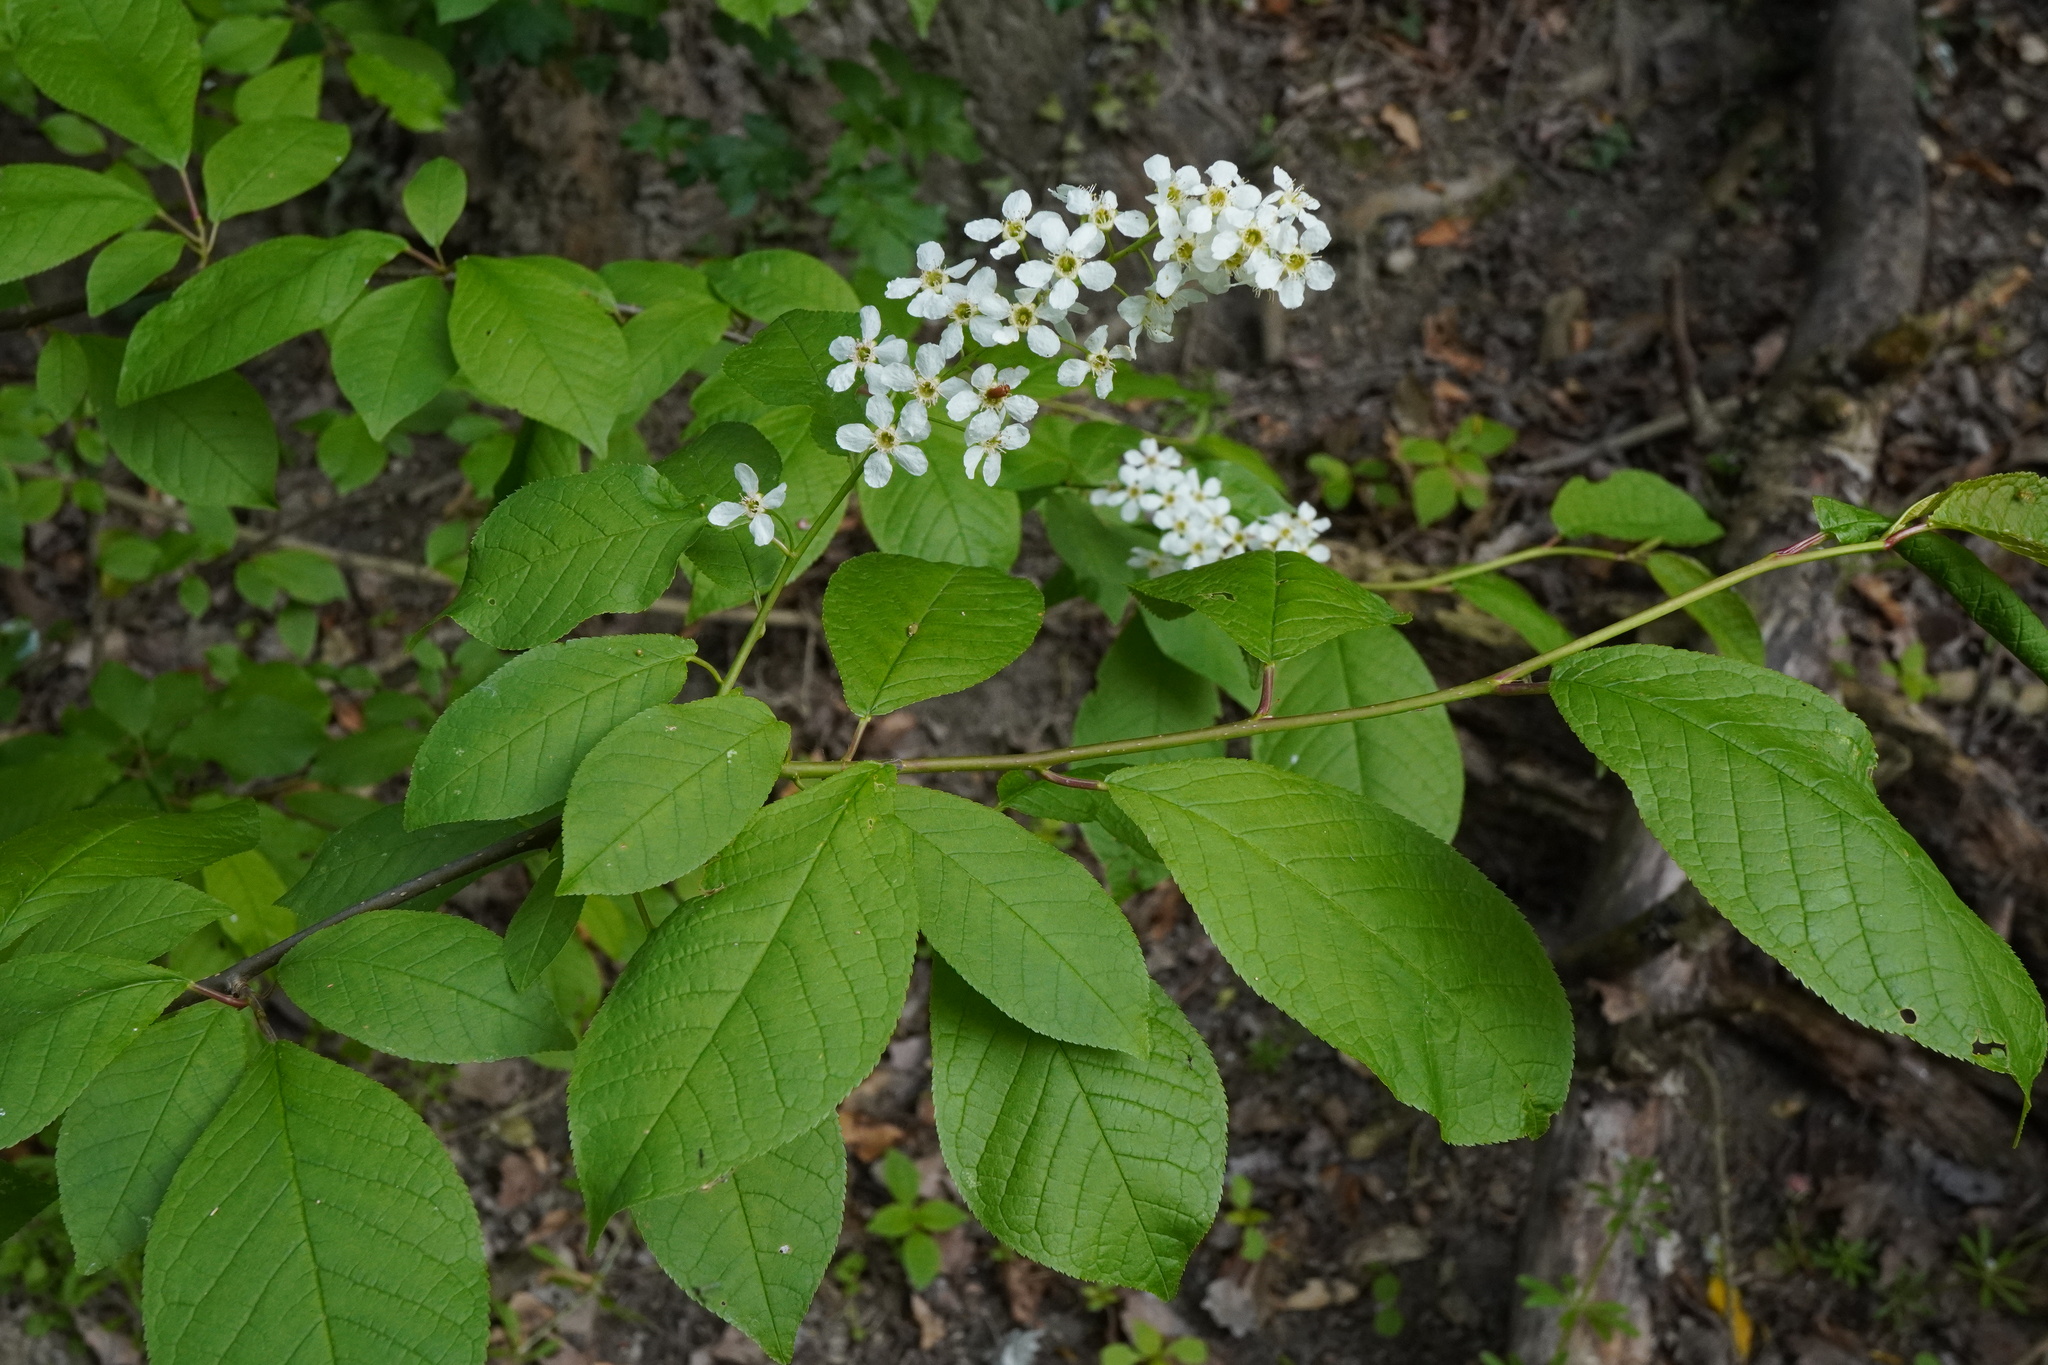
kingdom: Plantae
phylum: Tracheophyta
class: Magnoliopsida
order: Rosales
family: Rosaceae
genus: Prunus
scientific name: Prunus padus
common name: Bird cherry
